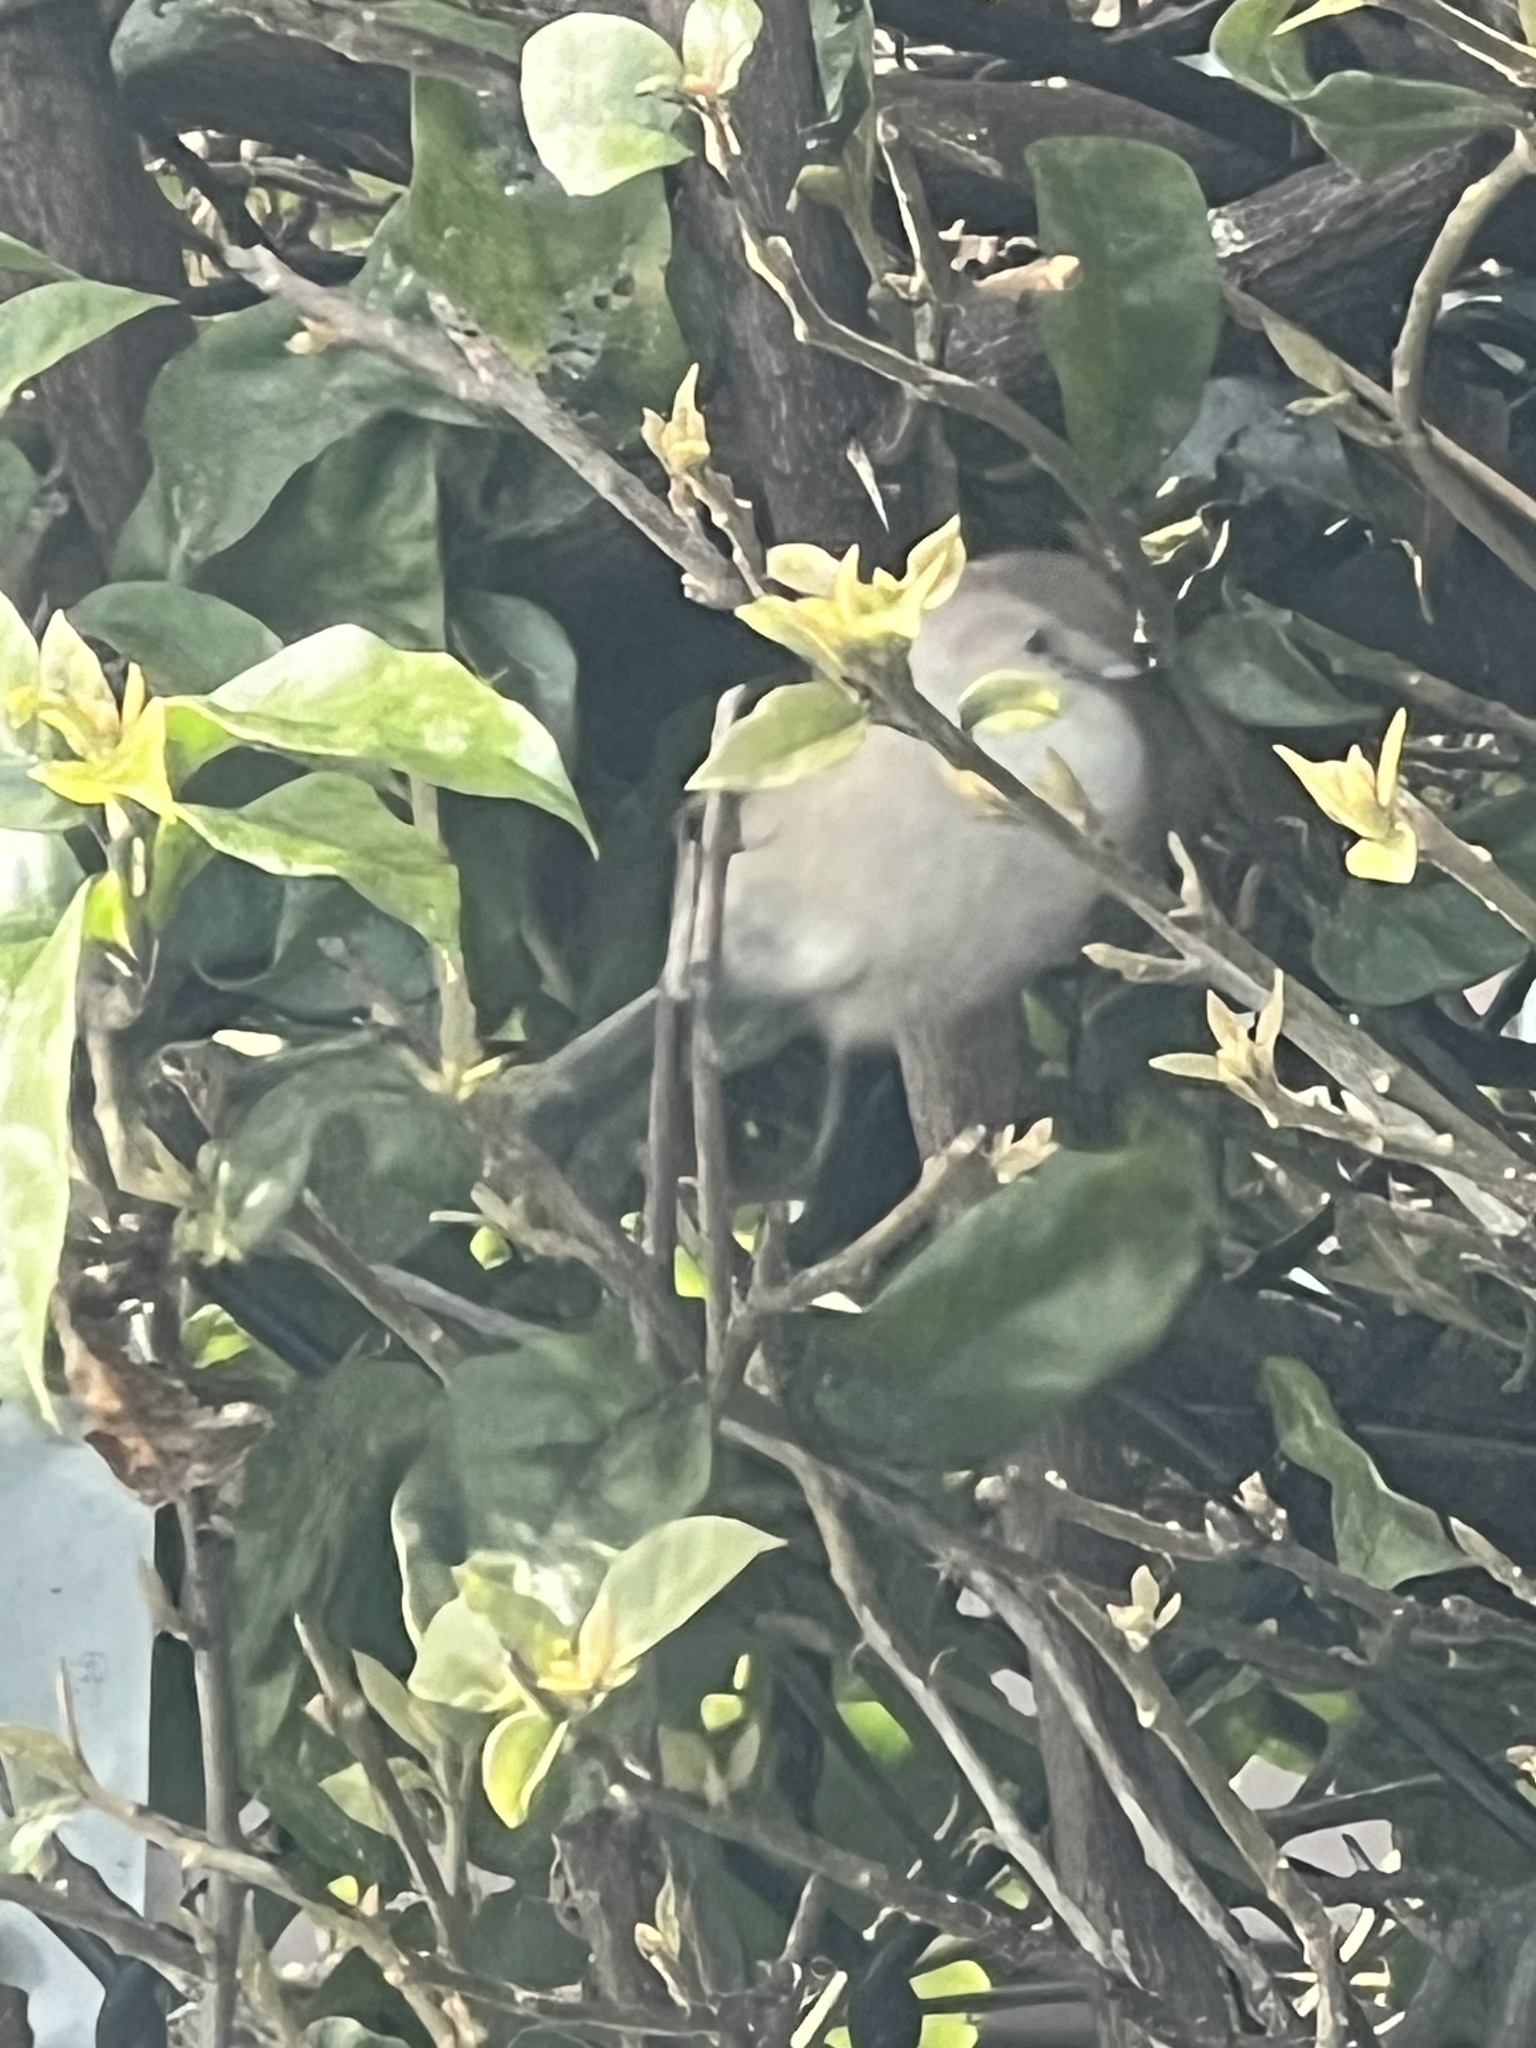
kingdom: Animalia
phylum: Chordata
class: Aves
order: Passeriformes
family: Aegithalidae
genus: Psaltriparus
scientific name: Psaltriparus minimus
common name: American bushtit
